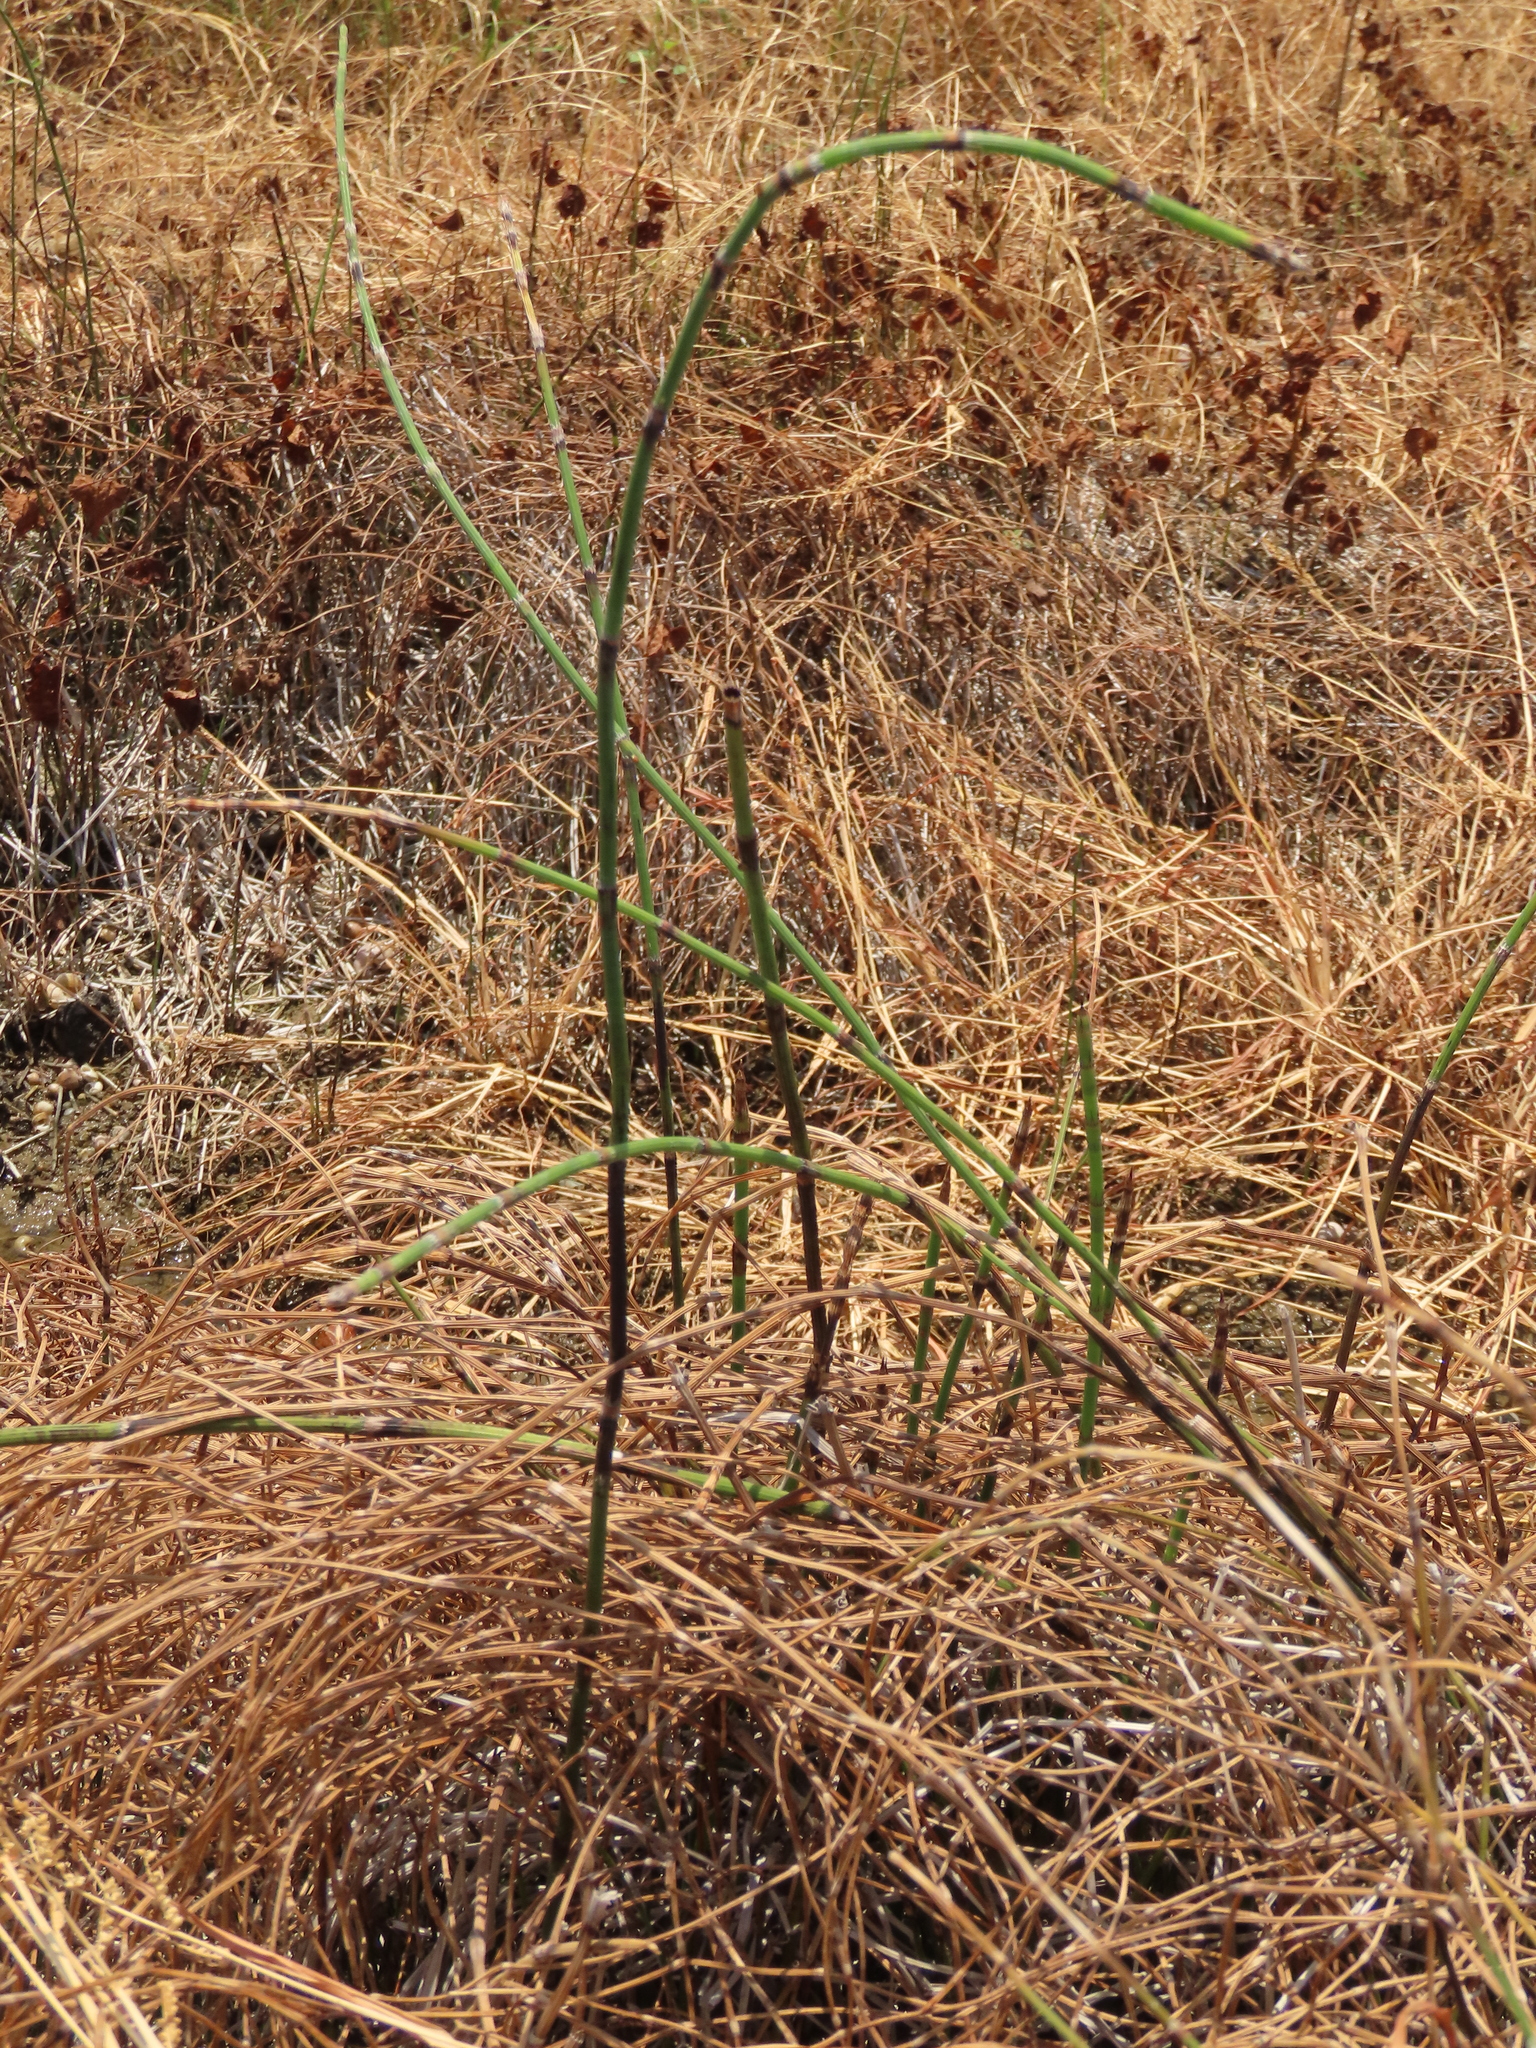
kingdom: Plantae
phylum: Tracheophyta
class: Polypodiopsida
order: Equisetales
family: Equisetaceae
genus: Equisetum
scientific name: Equisetum ramosissimum
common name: Branched horsetail
